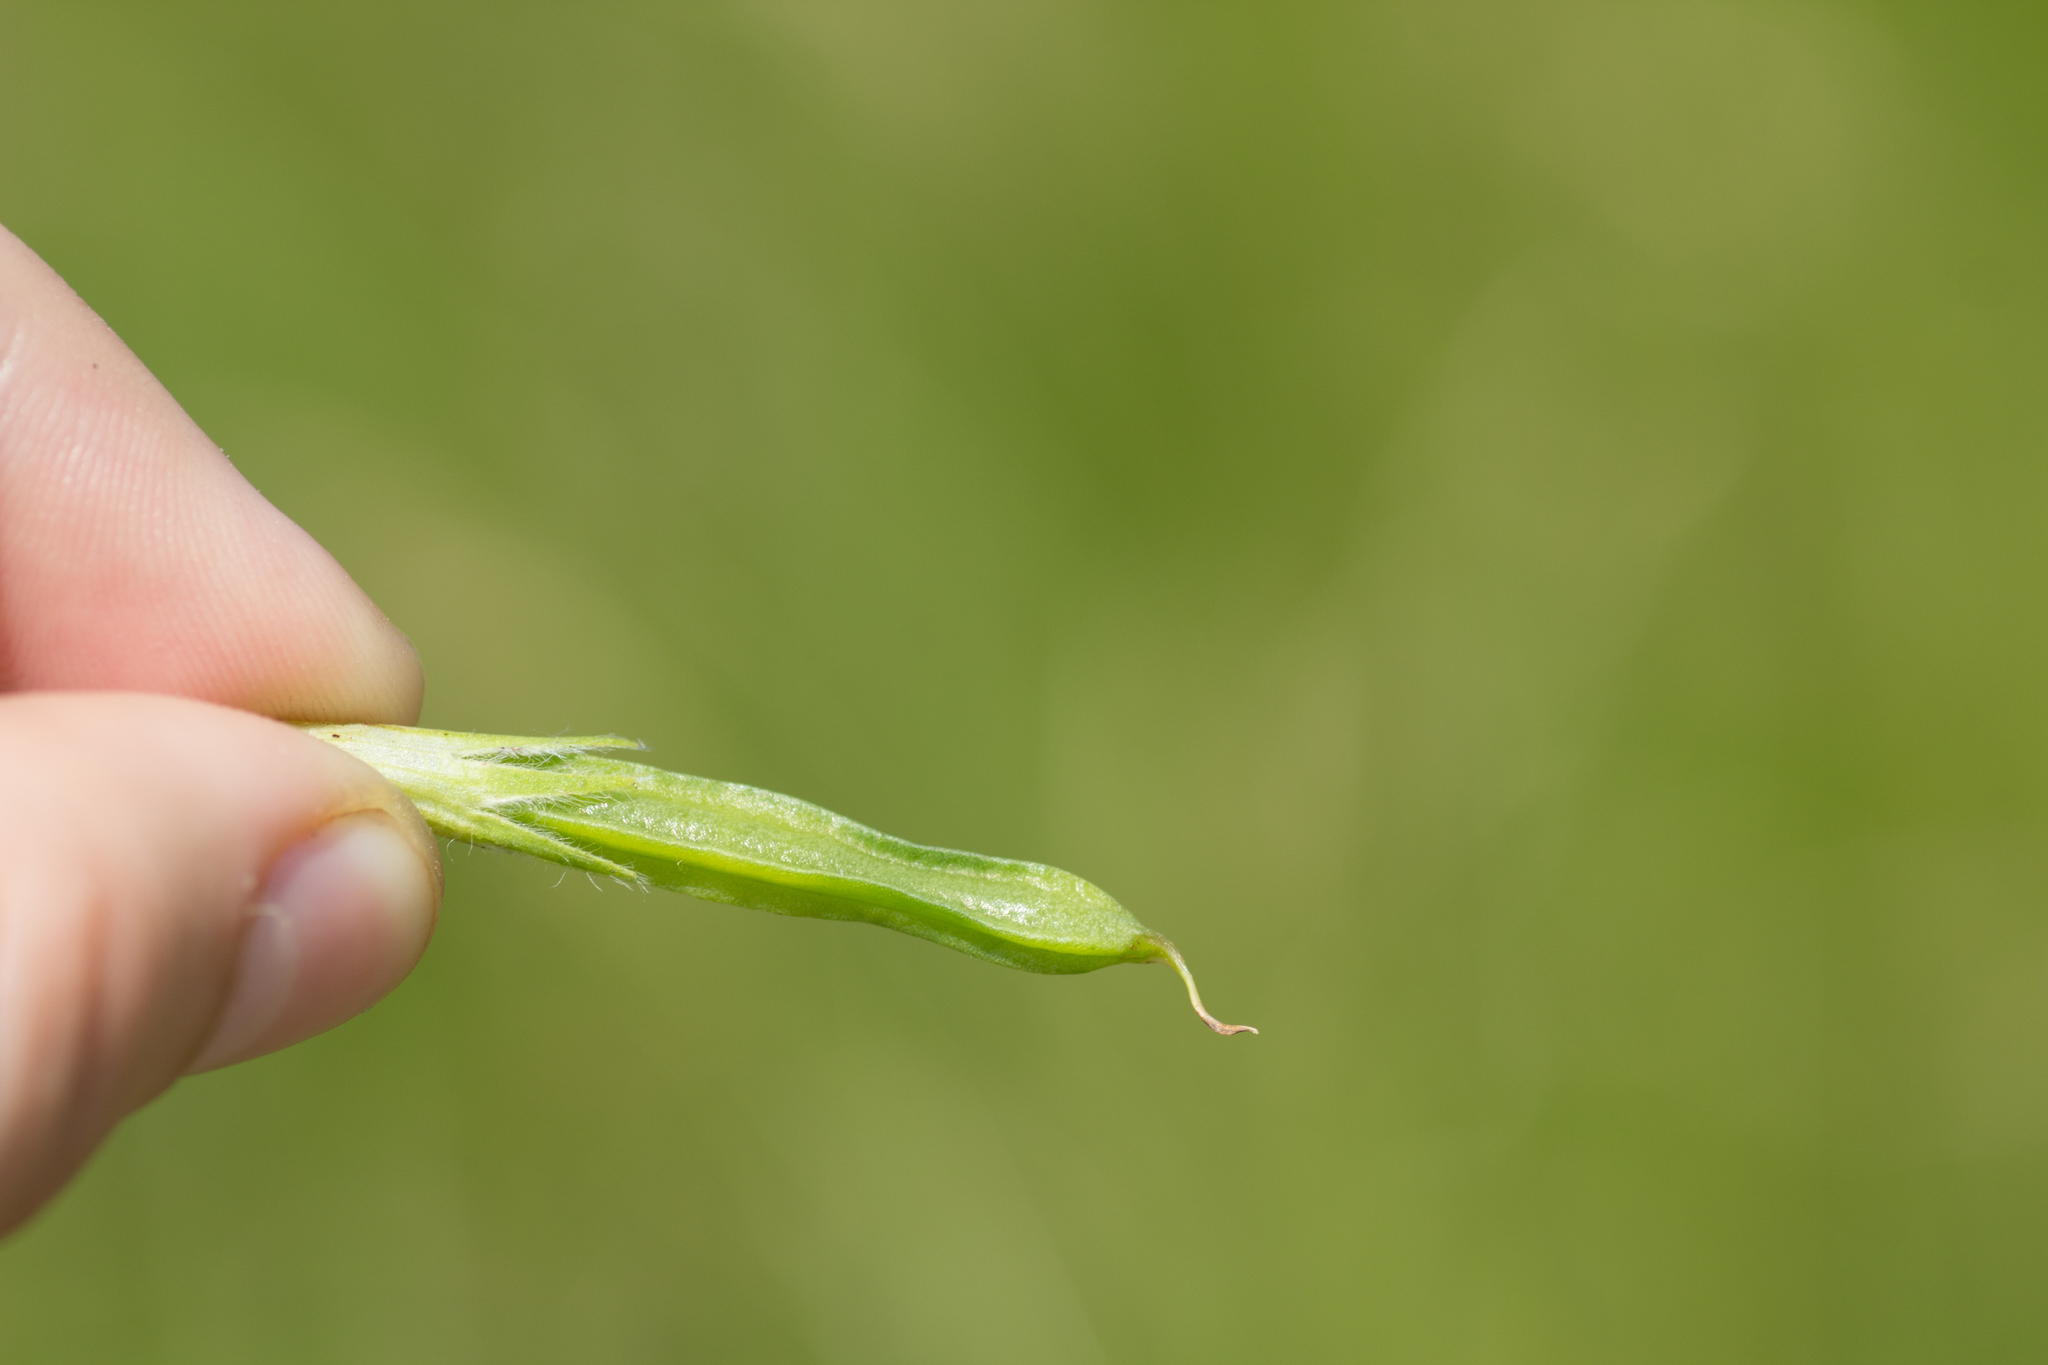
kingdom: Plantae
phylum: Tracheophyta
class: Magnoliopsida
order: Fabales
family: Fabaceae
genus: Lotus
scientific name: Lotus maritimus
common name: Dragon's-teeth
